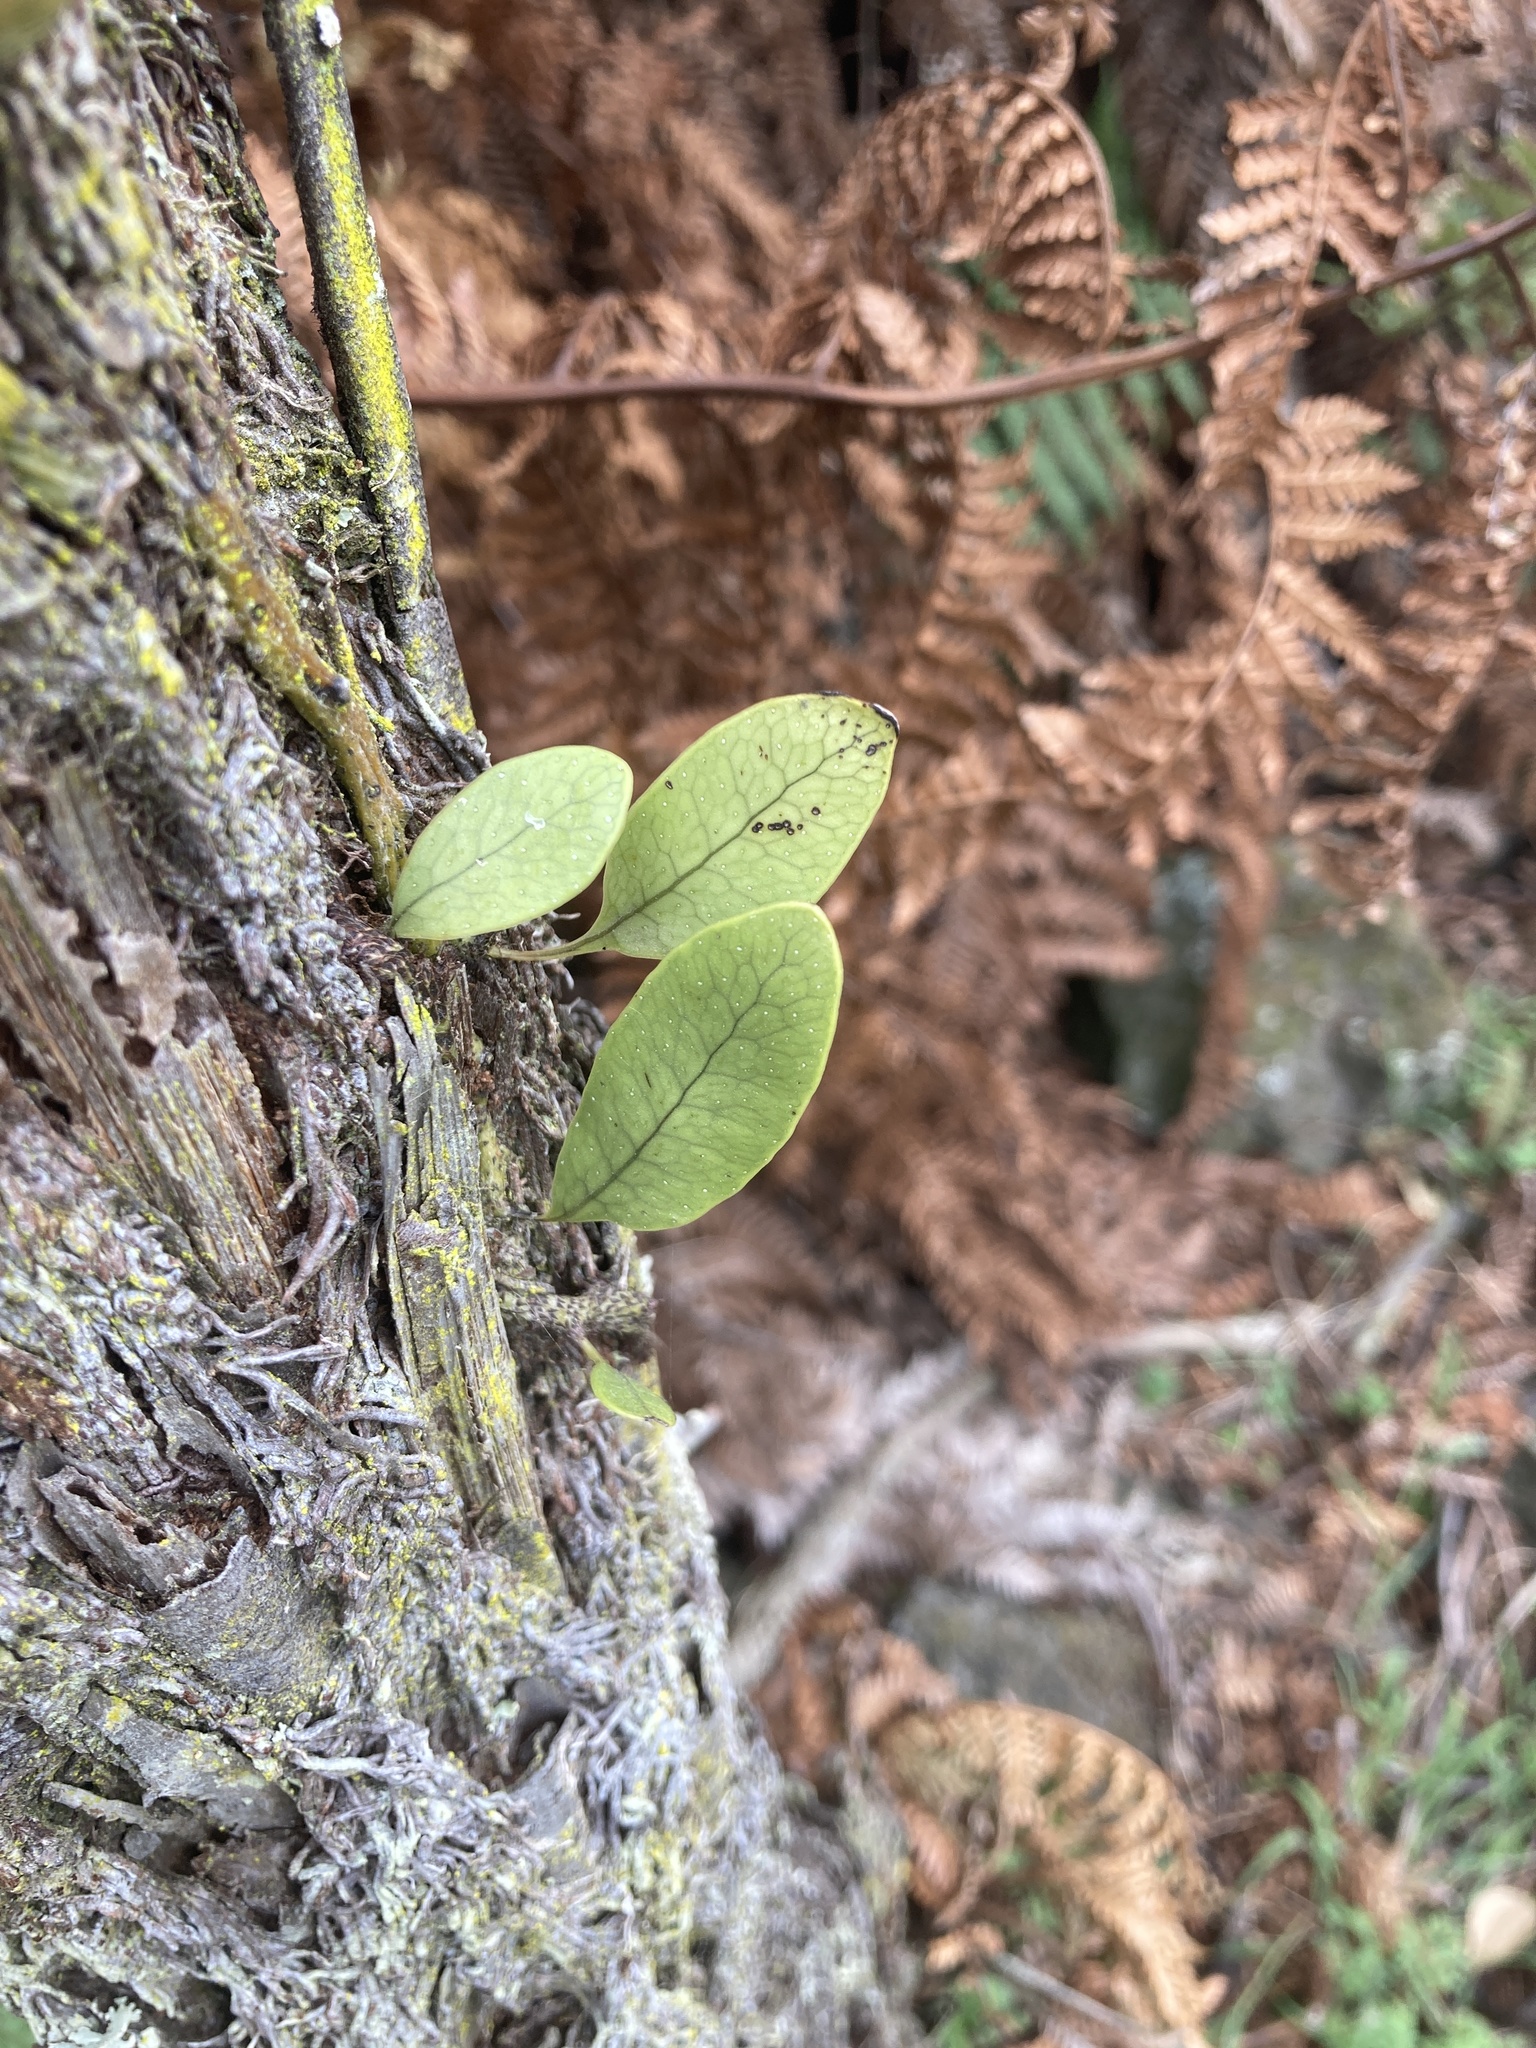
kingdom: Plantae
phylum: Tracheophyta
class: Polypodiopsida
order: Polypodiales
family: Polypodiaceae
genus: Lecanopteris
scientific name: Lecanopteris pustulata
